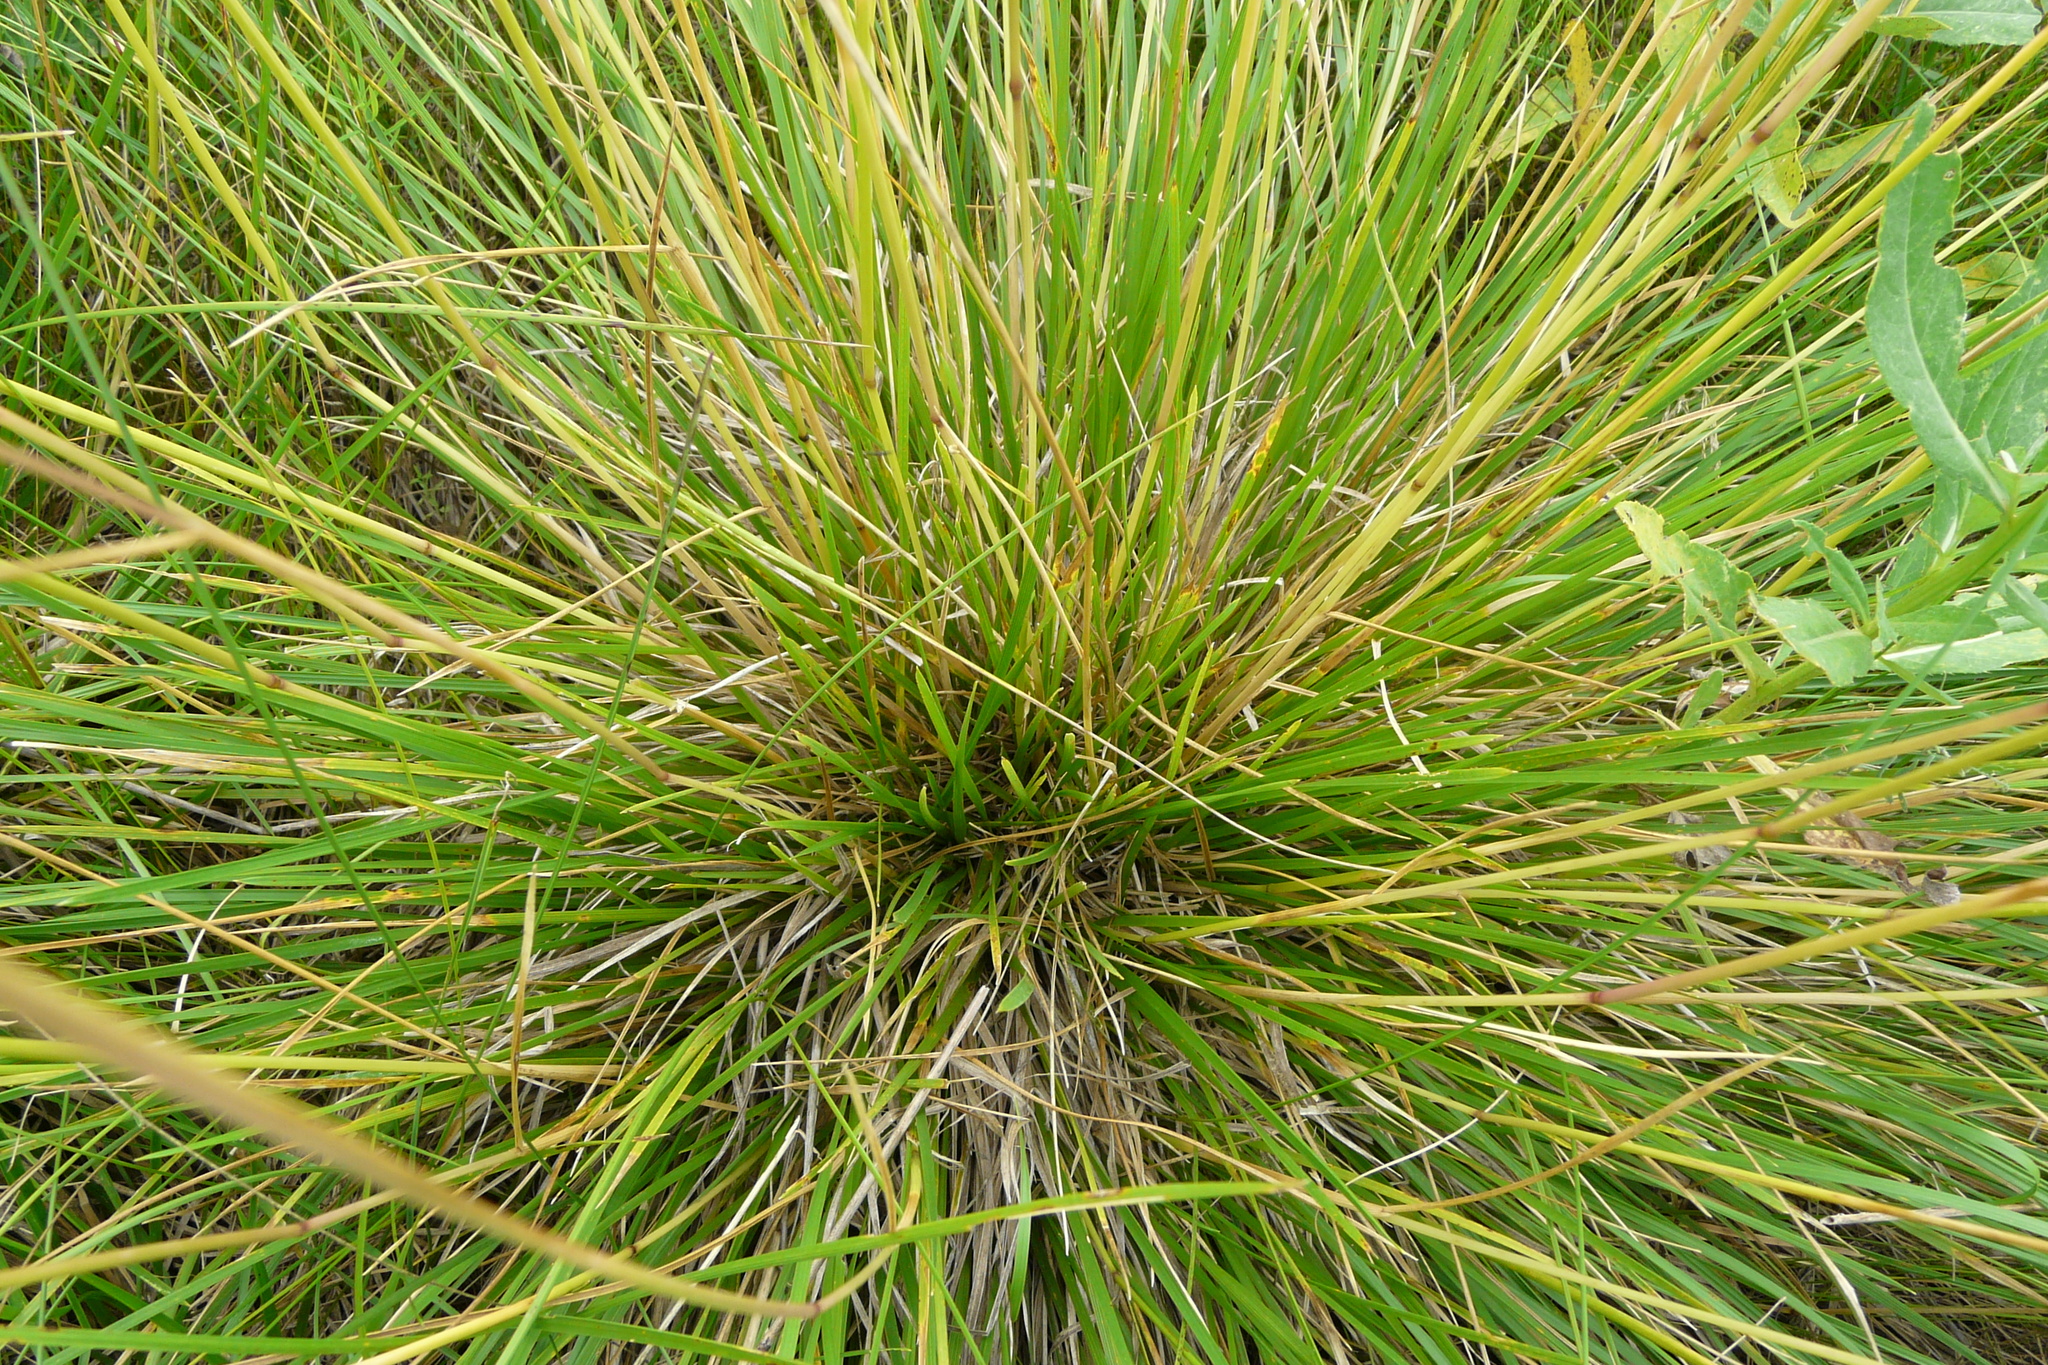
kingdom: Plantae
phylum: Tracheophyta
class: Liliopsida
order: Poales
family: Poaceae
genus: Deschampsia
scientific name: Deschampsia cespitosa
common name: Tufted hair-grass
